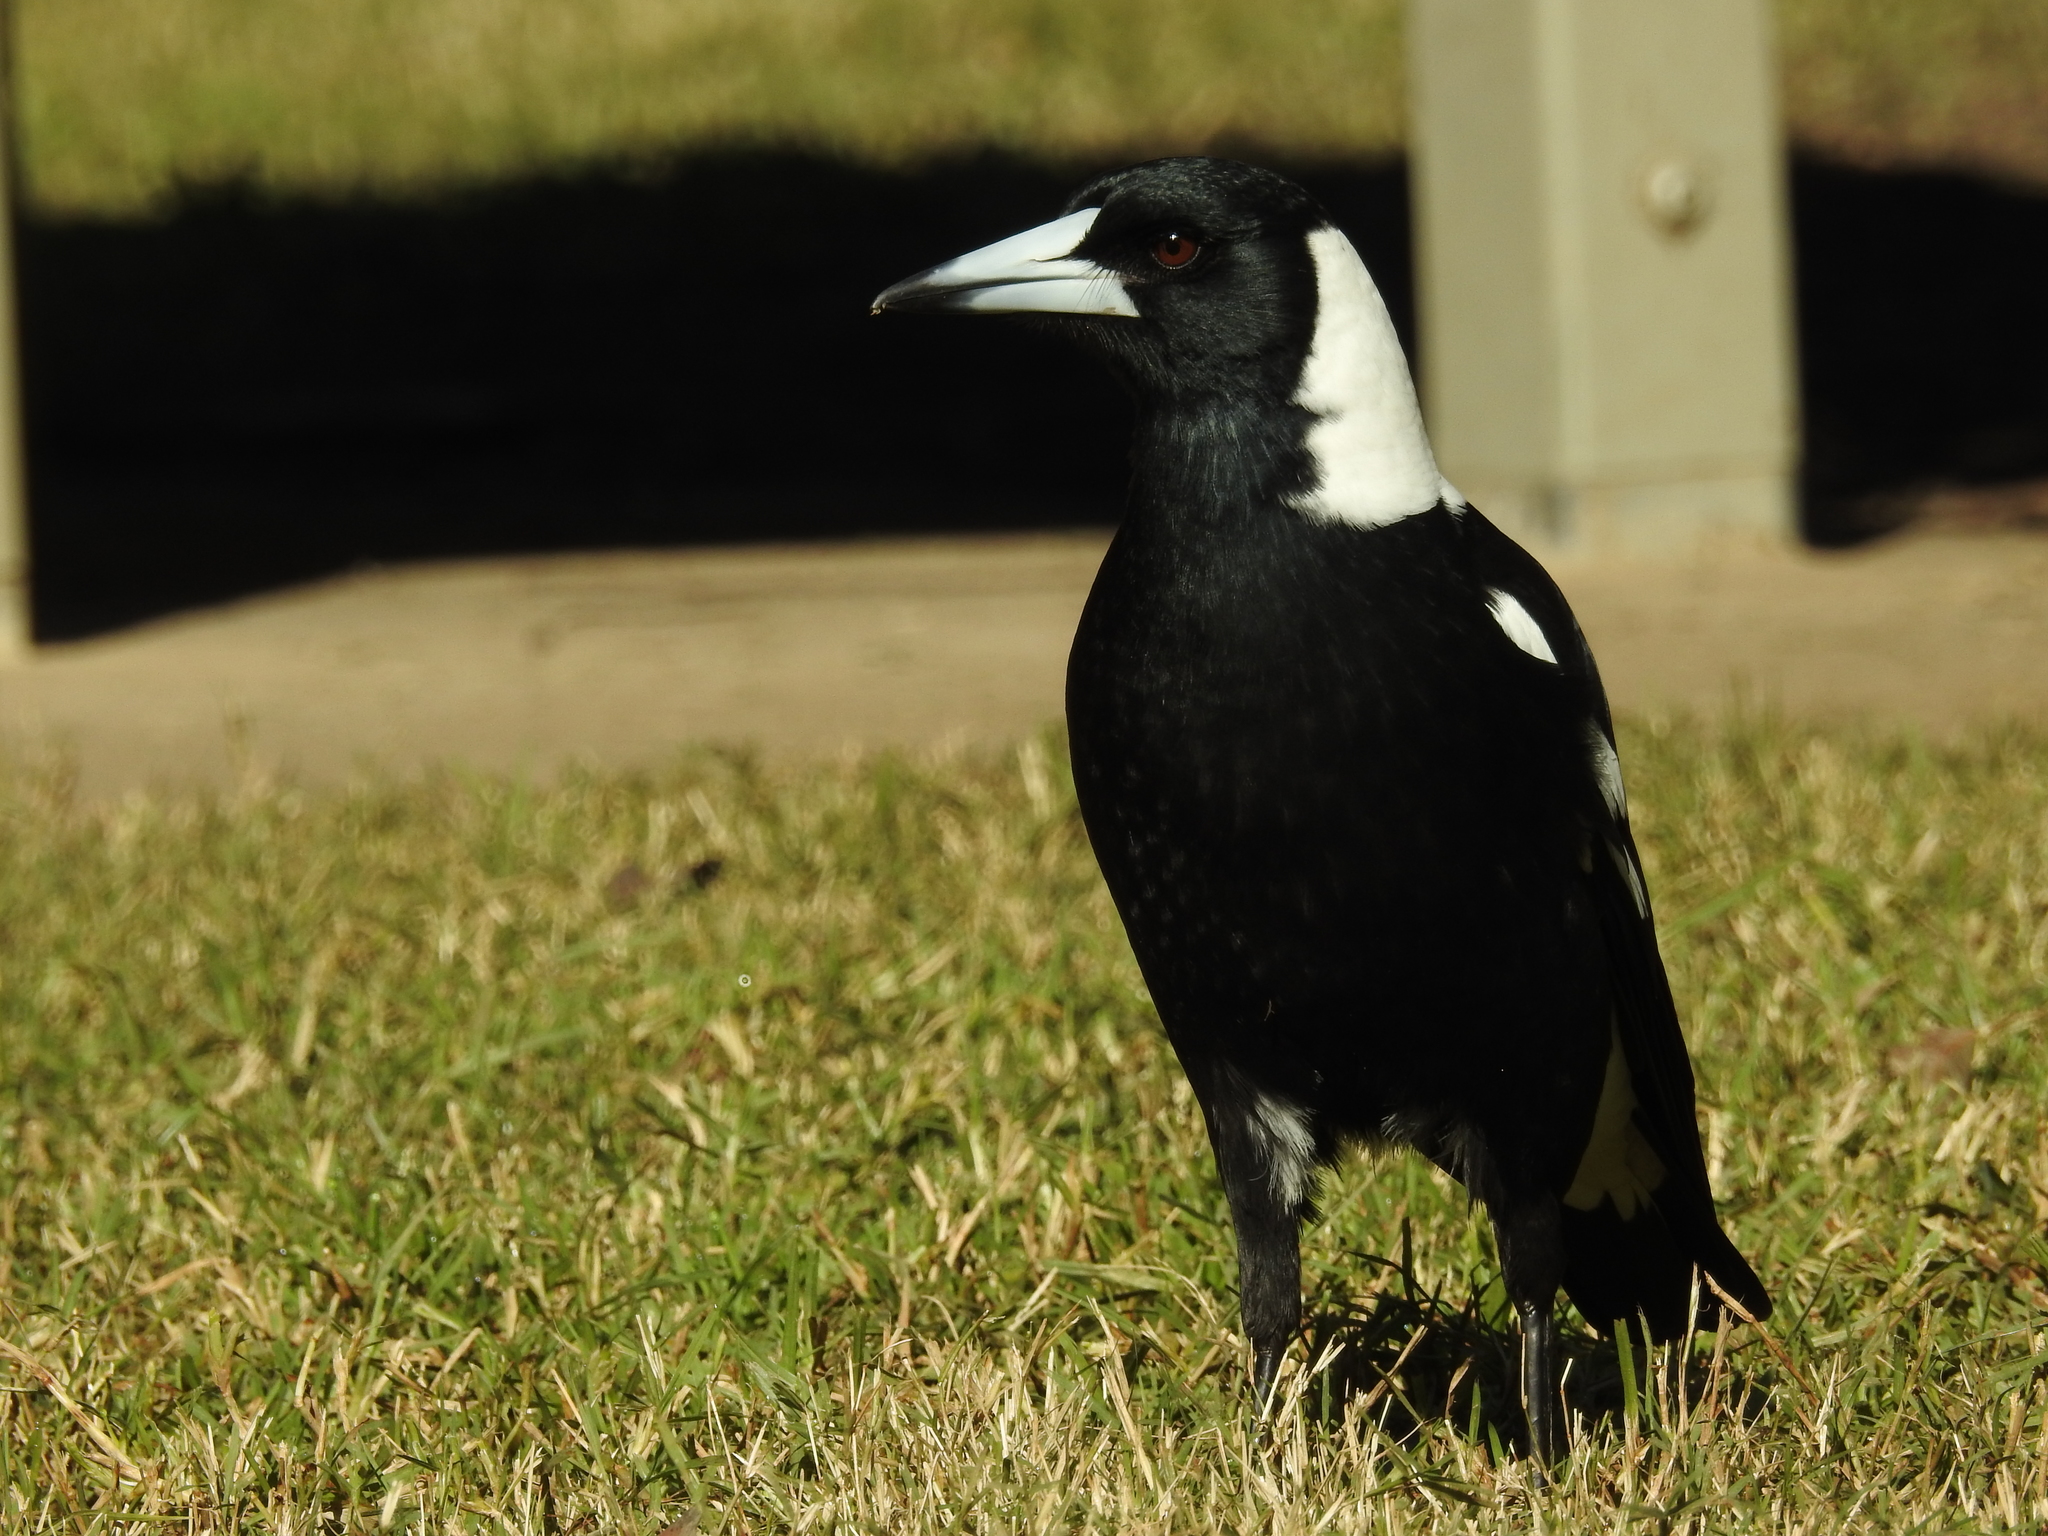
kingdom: Animalia
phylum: Chordata
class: Aves
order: Passeriformes
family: Cracticidae
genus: Gymnorhina
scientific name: Gymnorhina tibicen
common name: Australian magpie
